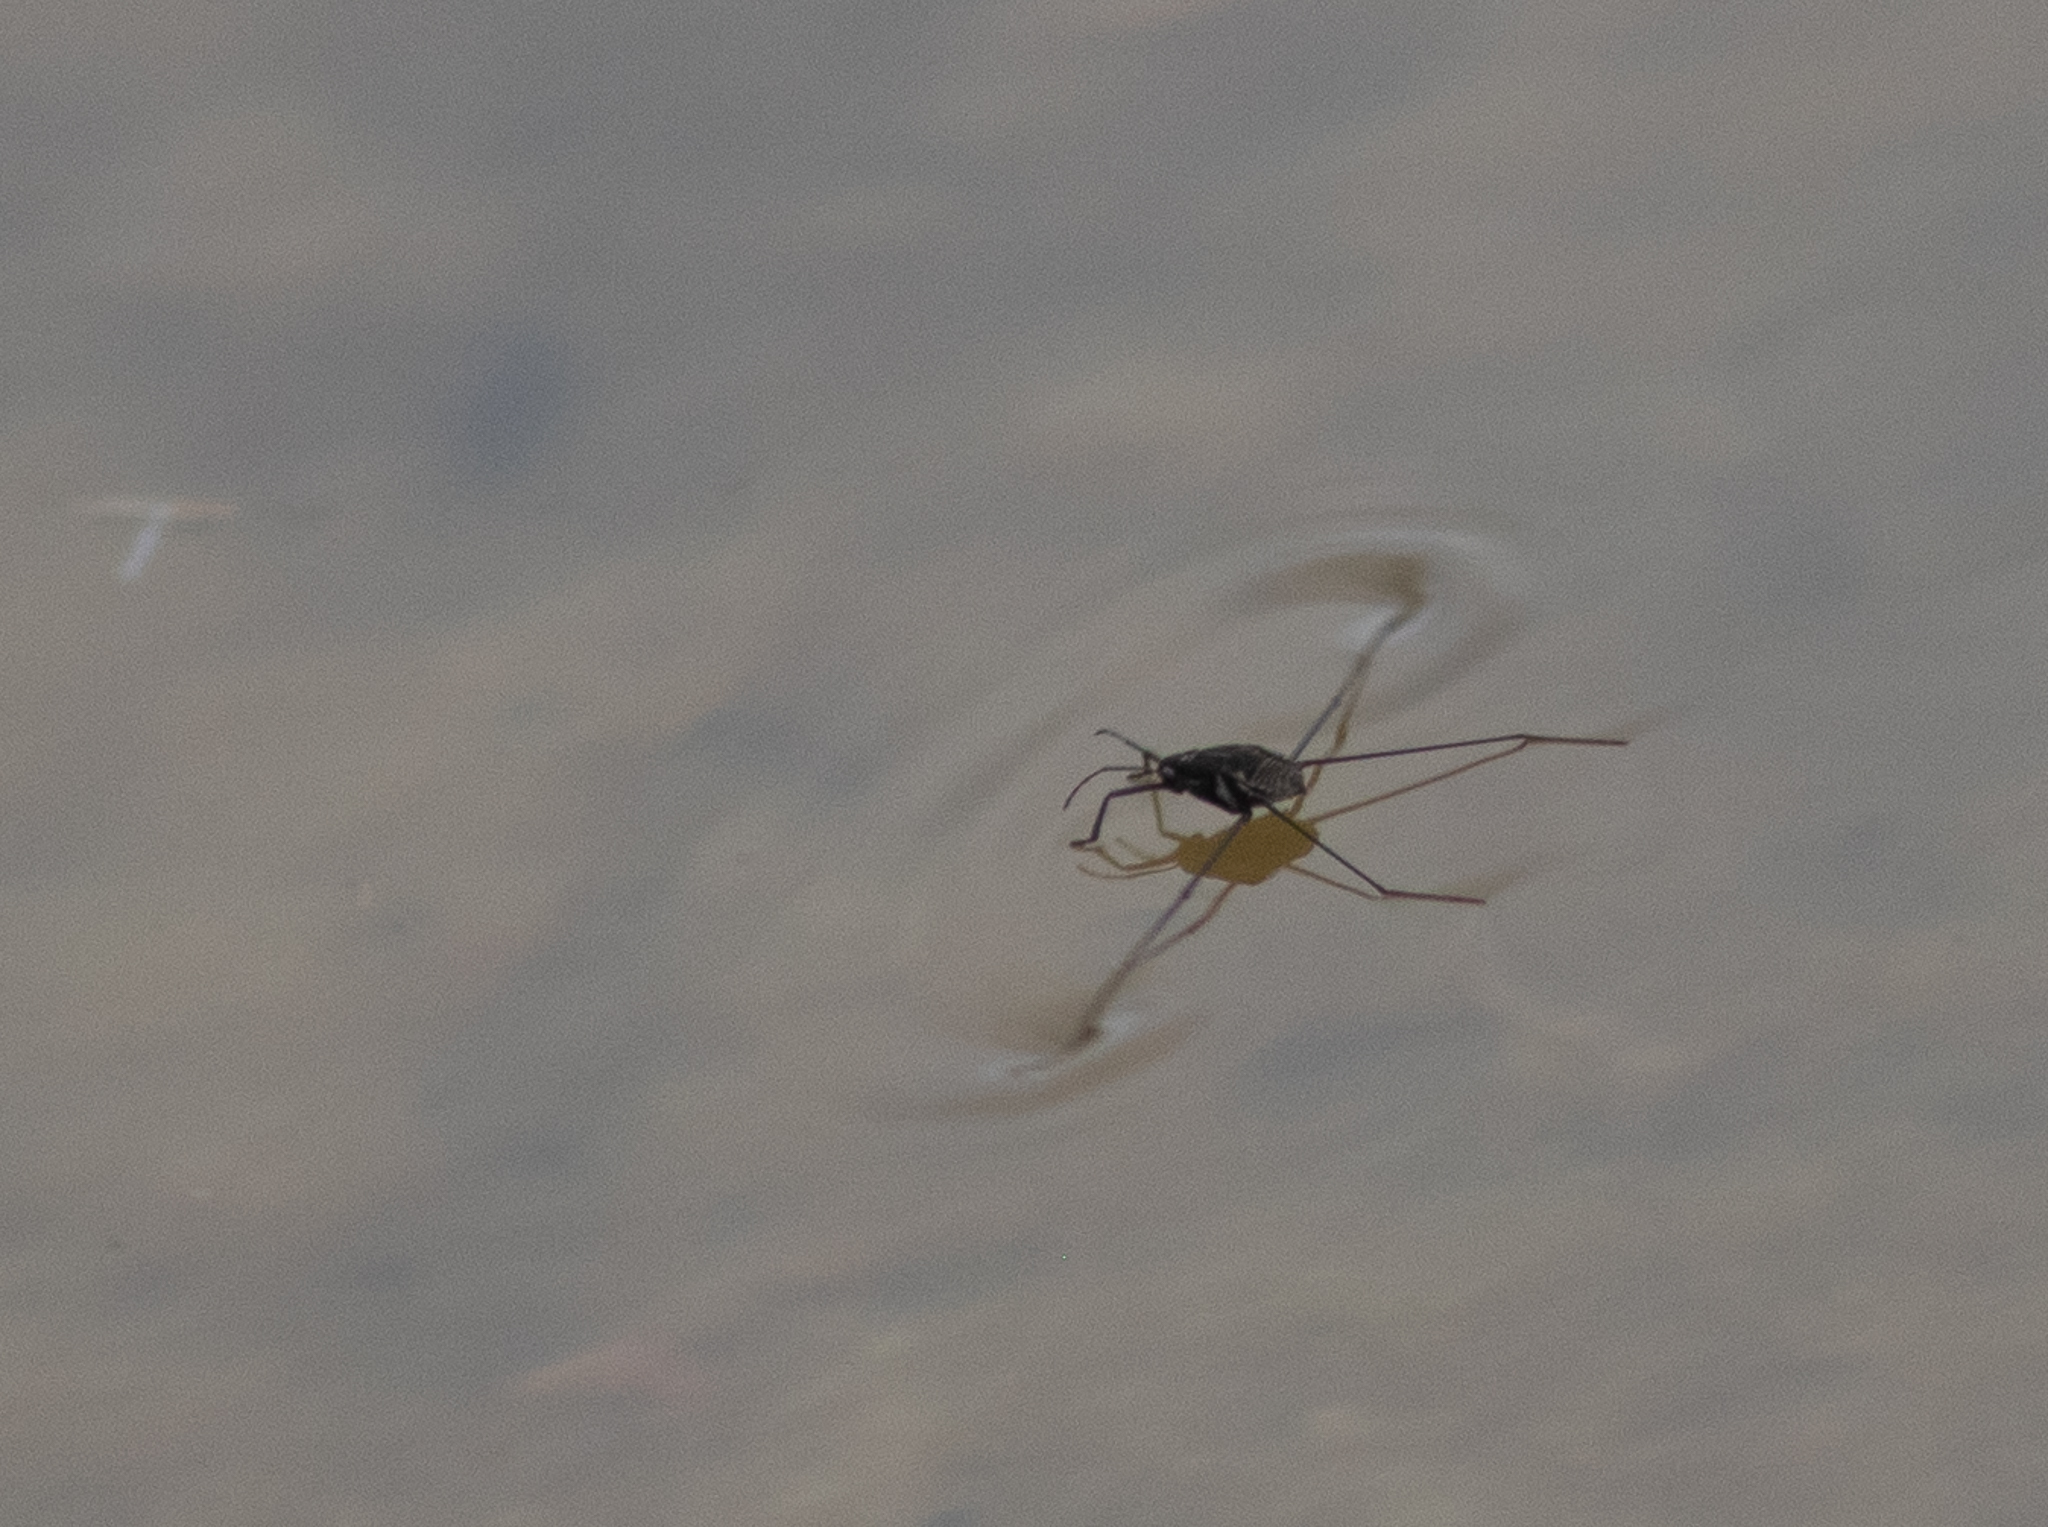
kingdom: Animalia
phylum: Arthropoda
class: Insecta
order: Hemiptera
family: Gerridae
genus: Metrobates
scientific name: Metrobates hesperius
